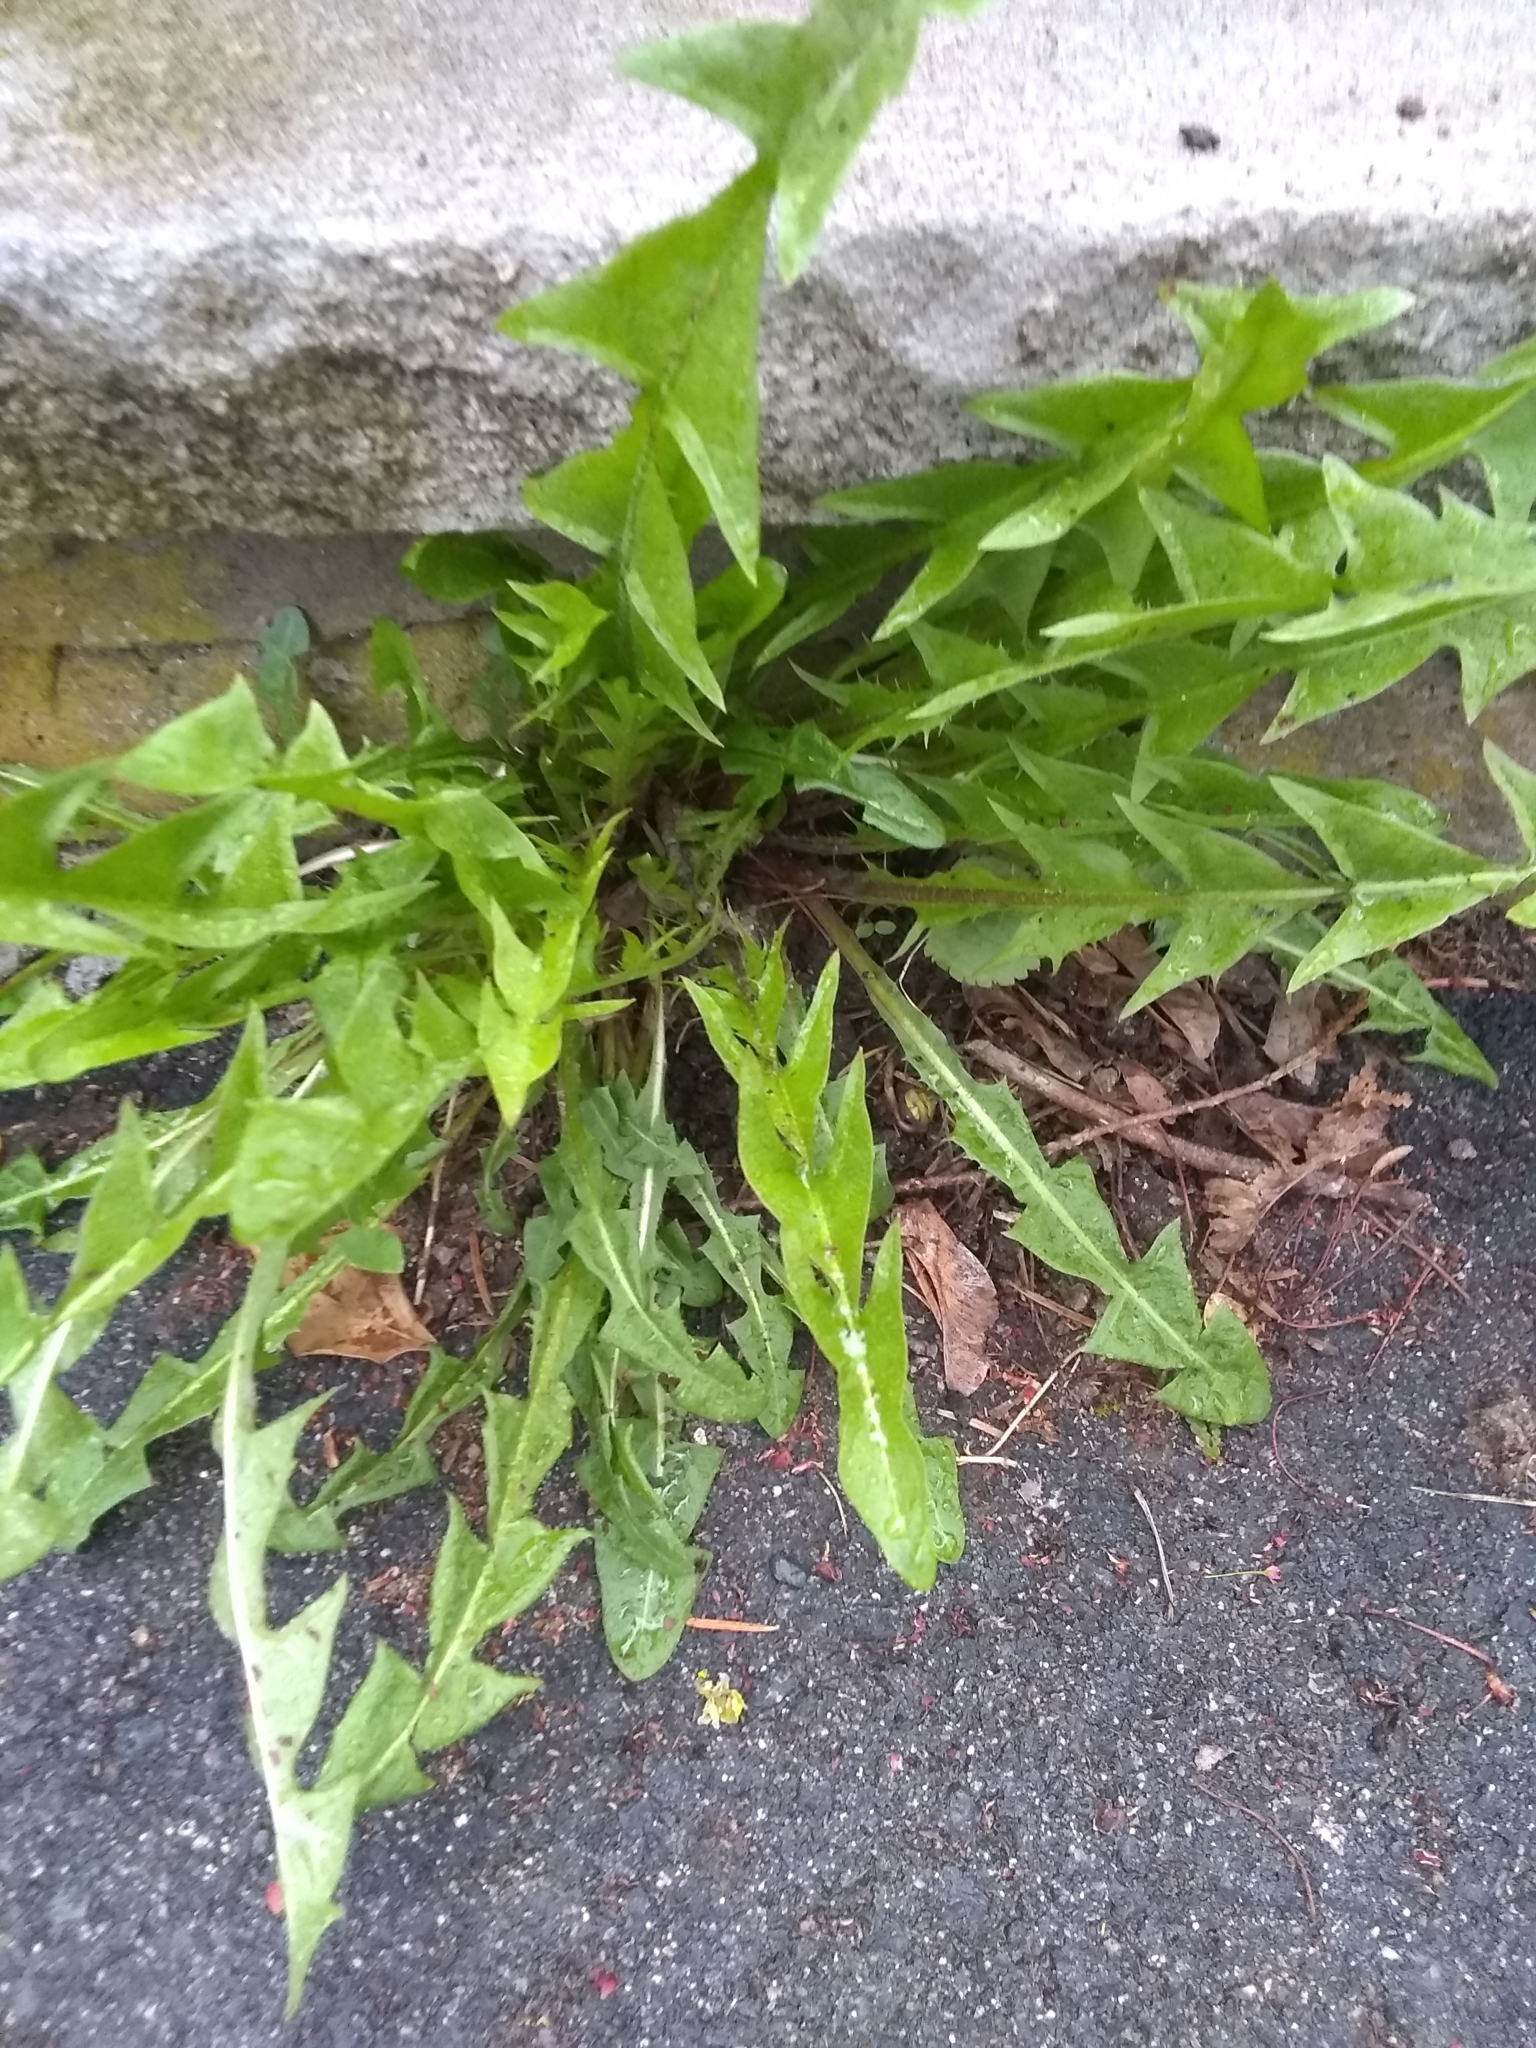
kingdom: Plantae
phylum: Tracheophyta
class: Magnoliopsida
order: Asterales
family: Asteraceae
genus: Taraxacum
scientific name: Taraxacum officinale
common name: Common dandelion
